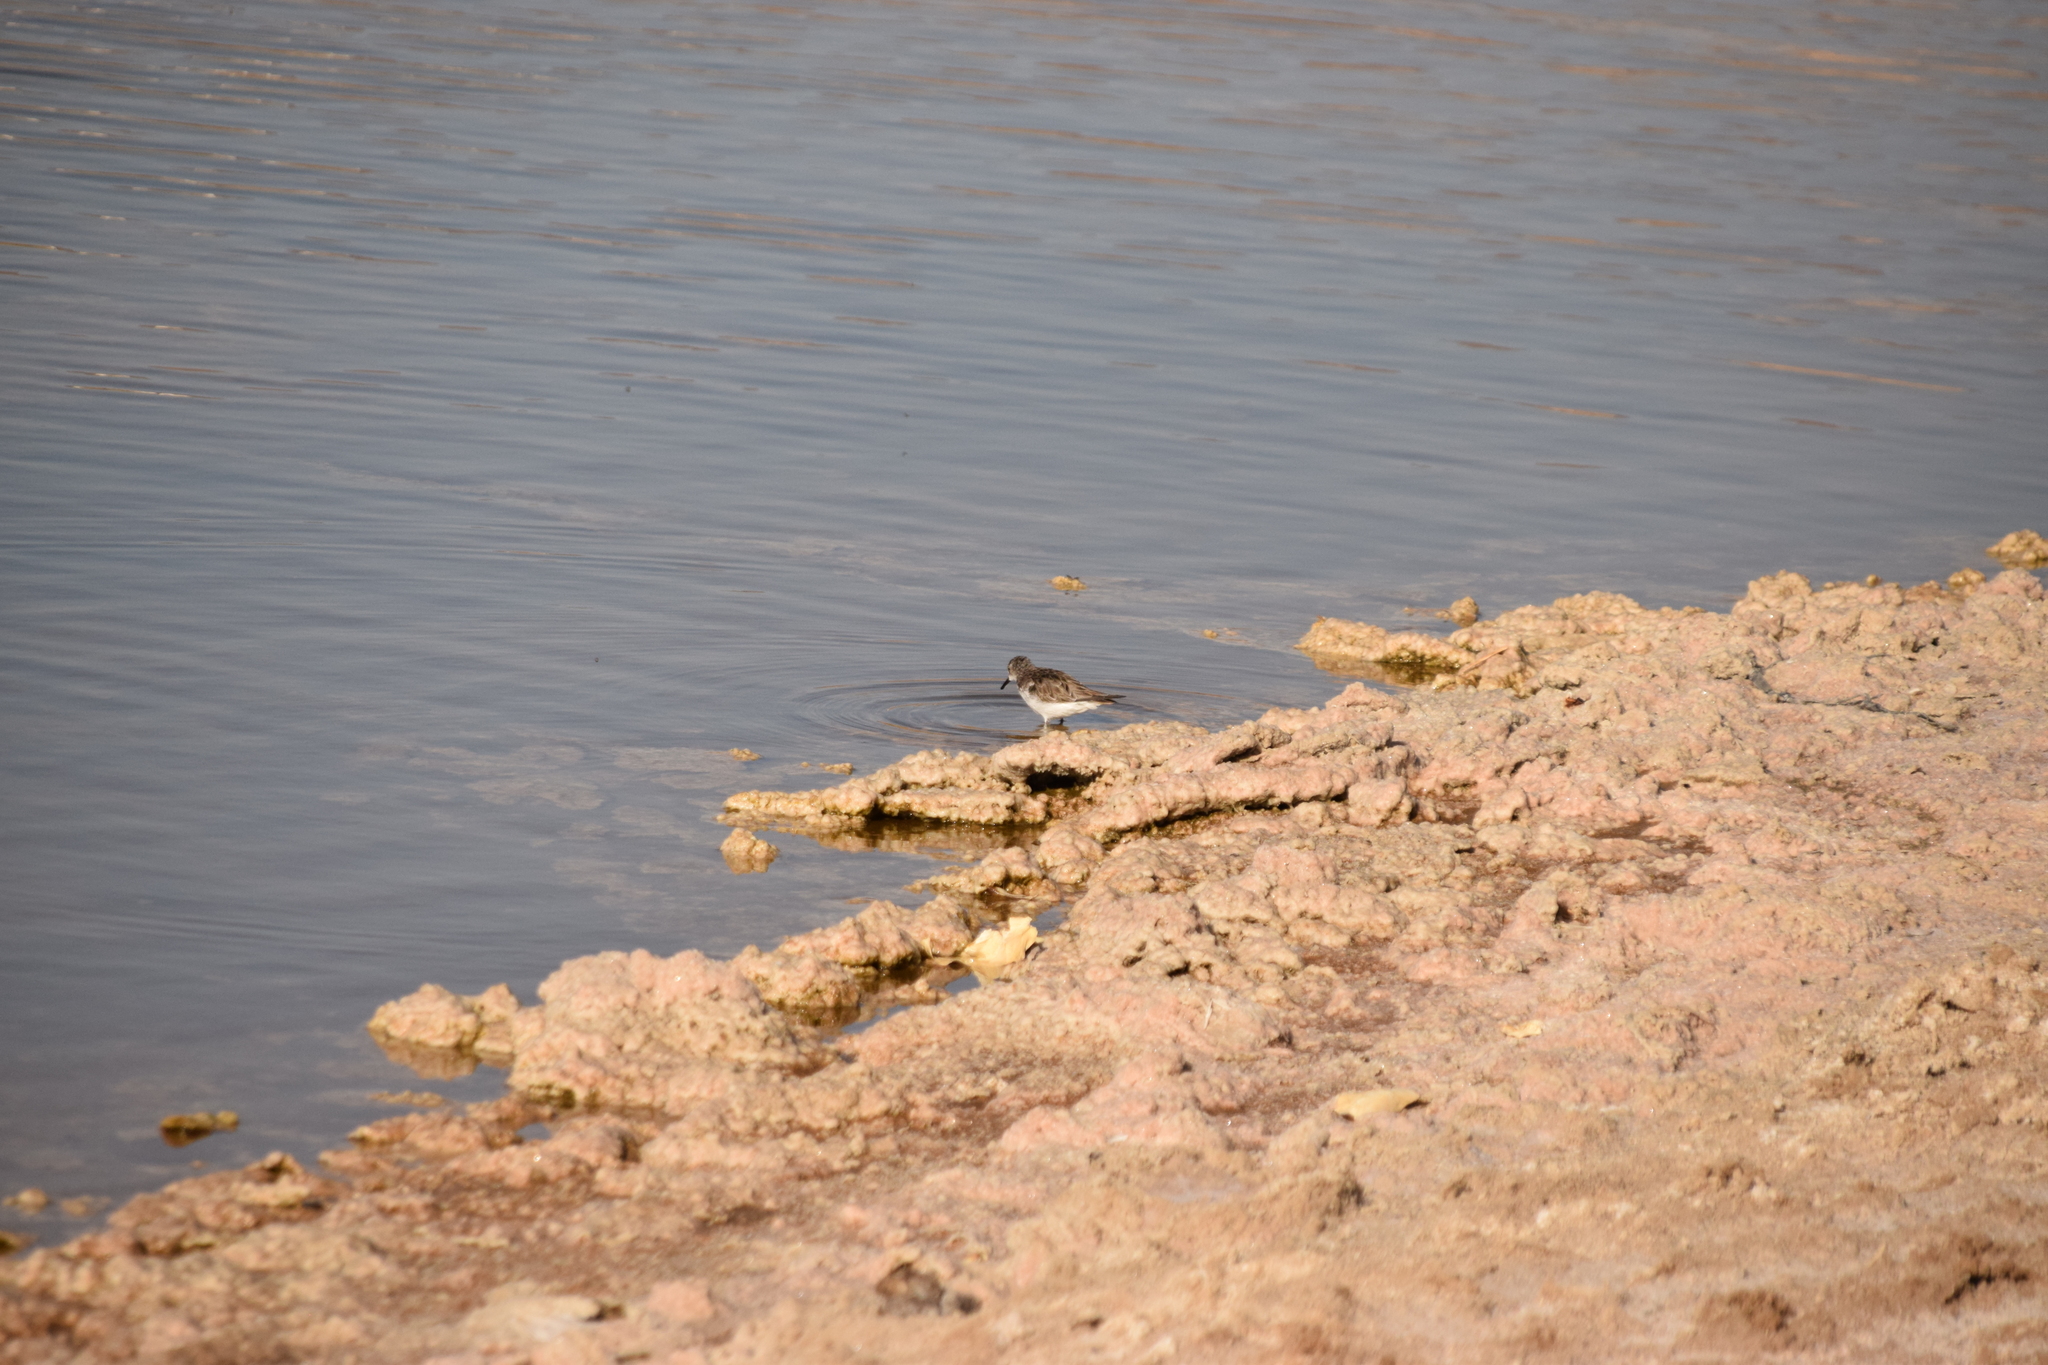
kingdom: Animalia
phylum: Chordata
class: Aves
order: Charadriiformes
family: Scolopacidae
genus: Calidris
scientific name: Calidris minuta
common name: Little stint
